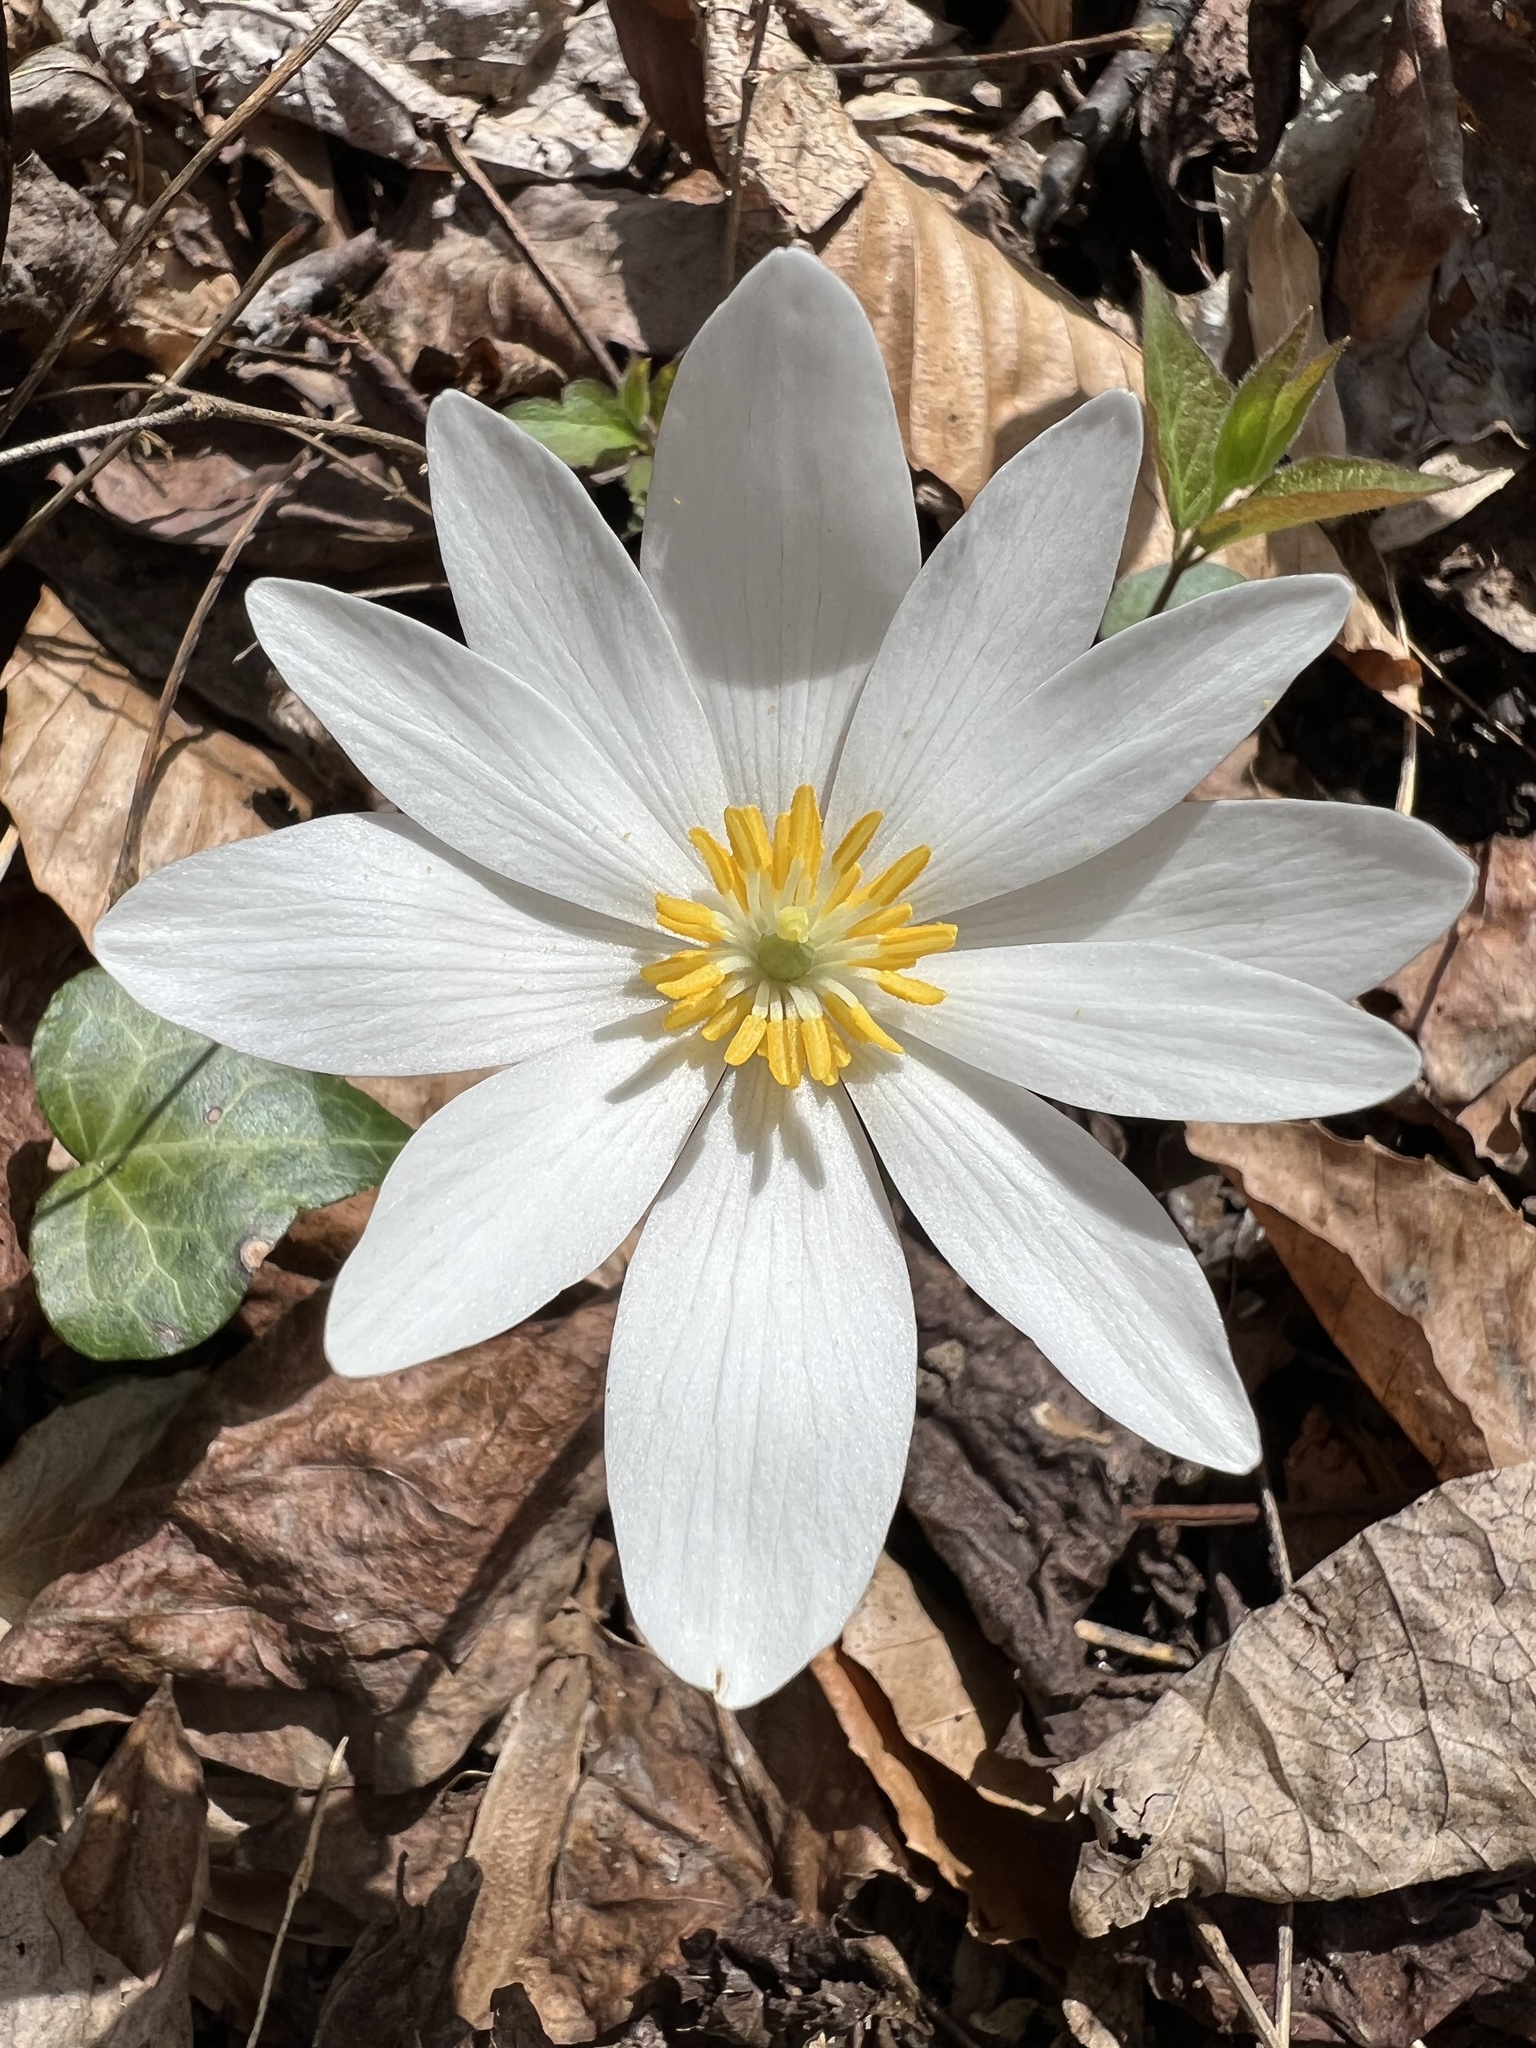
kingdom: Plantae
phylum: Tracheophyta
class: Magnoliopsida
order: Ranunculales
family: Papaveraceae
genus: Sanguinaria
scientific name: Sanguinaria canadensis
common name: Bloodroot
